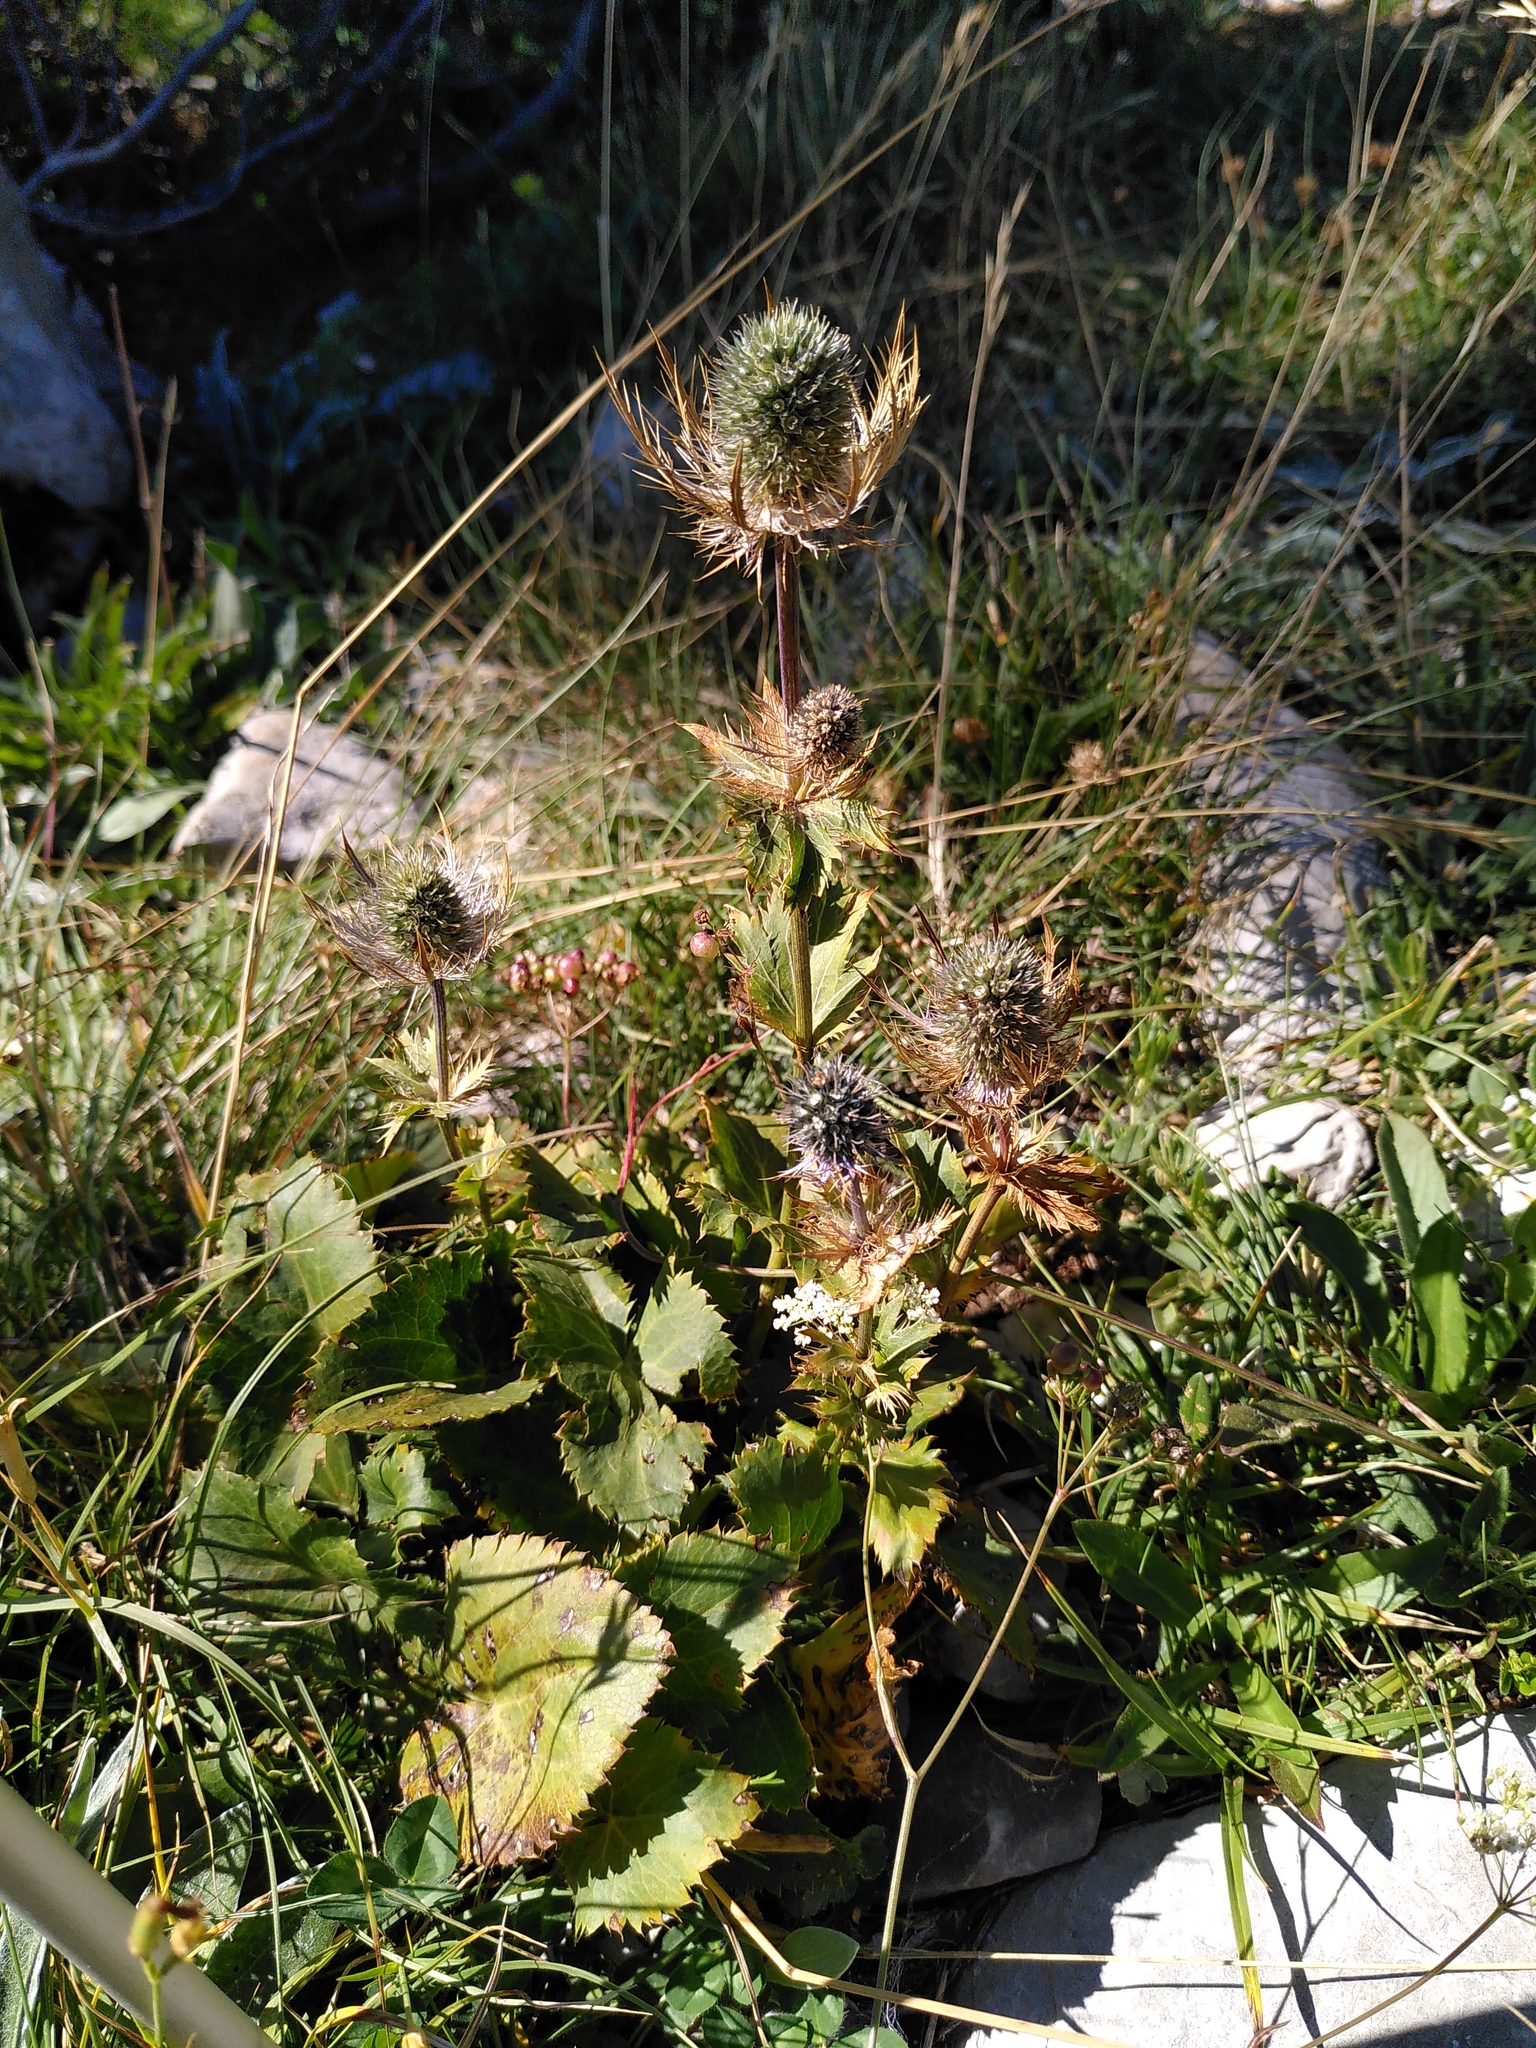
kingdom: Plantae
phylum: Tracheophyta
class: Magnoliopsida
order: Apiales
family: Apiaceae
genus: Eryngium
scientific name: Eryngium alpinum
